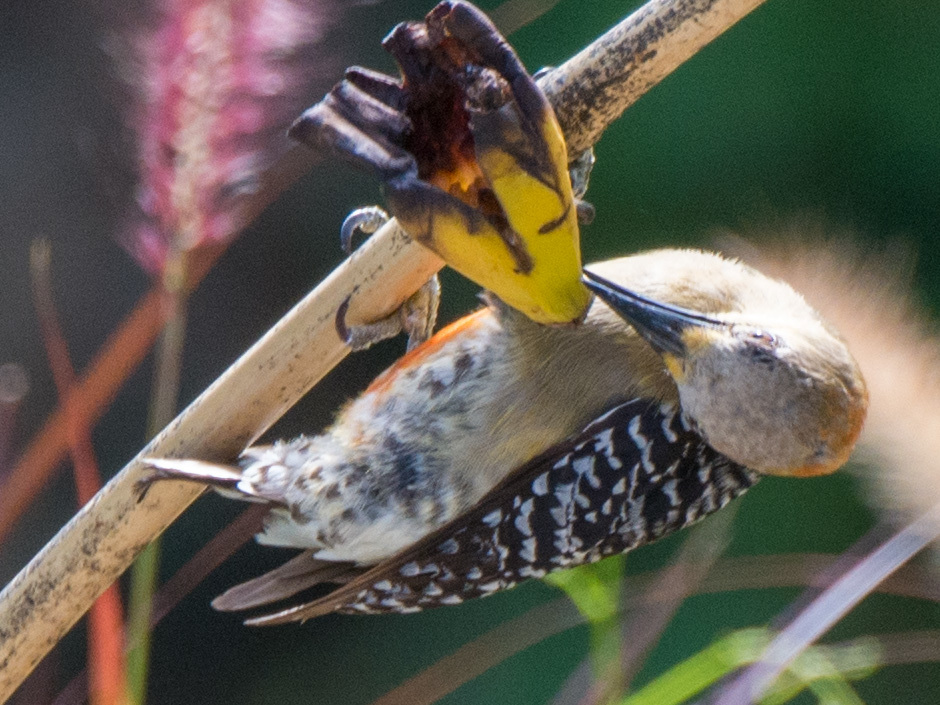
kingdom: Animalia
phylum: Chordata
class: Aves
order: Piciformes
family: Picidae
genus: Melanerpes
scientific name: Melanerpes rubricapillus
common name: Red-crowned woodpecker
